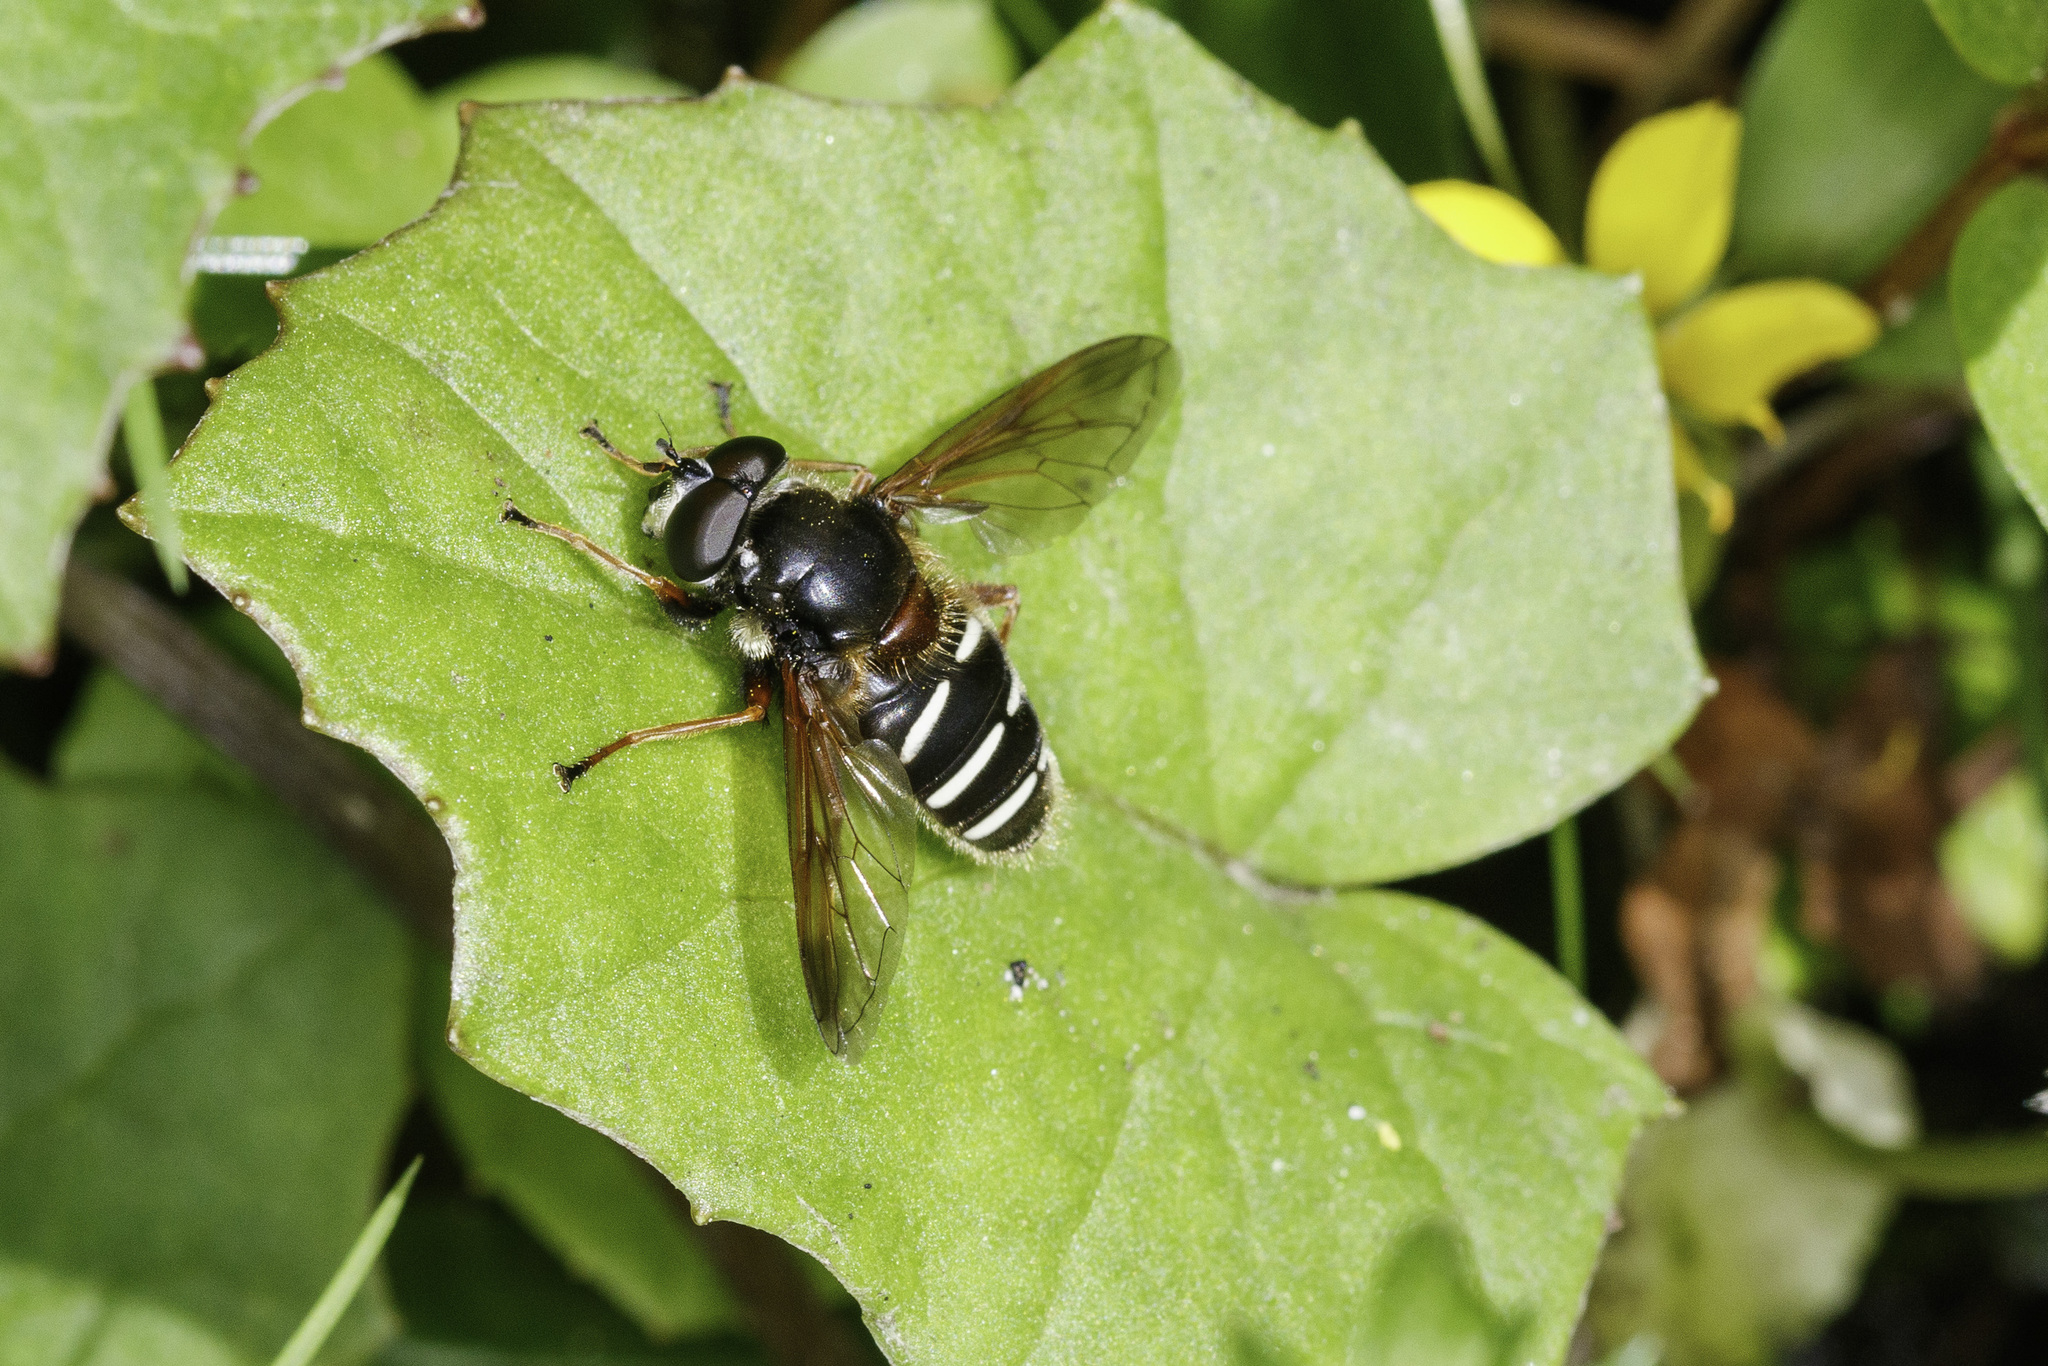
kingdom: Animalia
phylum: Arthropoda
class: Insecta
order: Diptera
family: Syrphidae
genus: Sericomyia
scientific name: Sericomyia lappona
